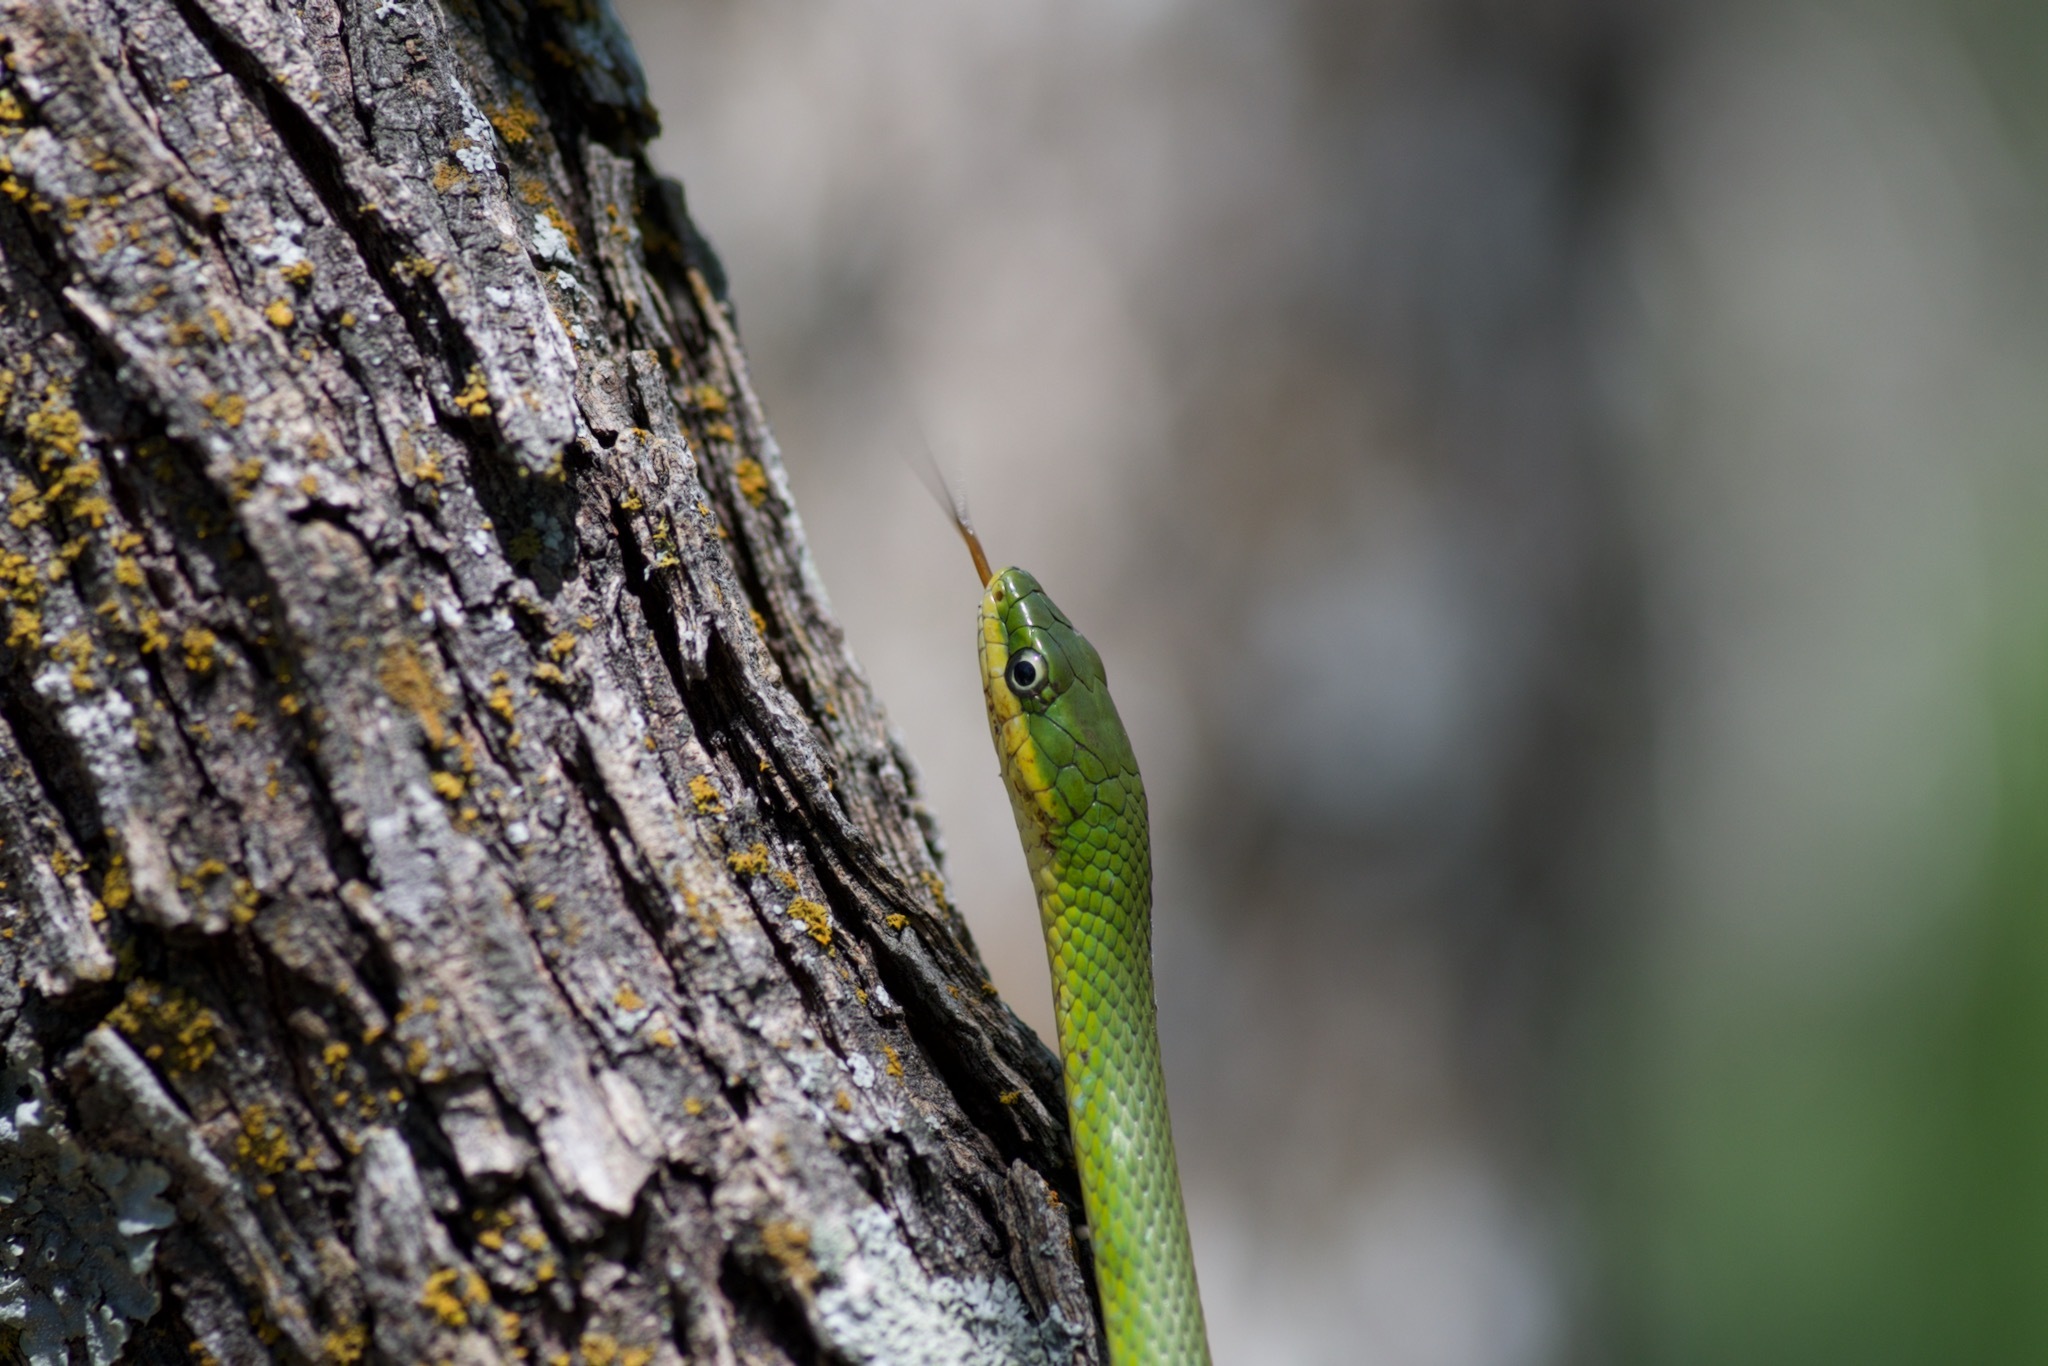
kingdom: Animalia
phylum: Chordata
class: Squamata
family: Colubridae
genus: Opheodrys
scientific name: Opheodrys aestivus
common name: Rough greensnake
